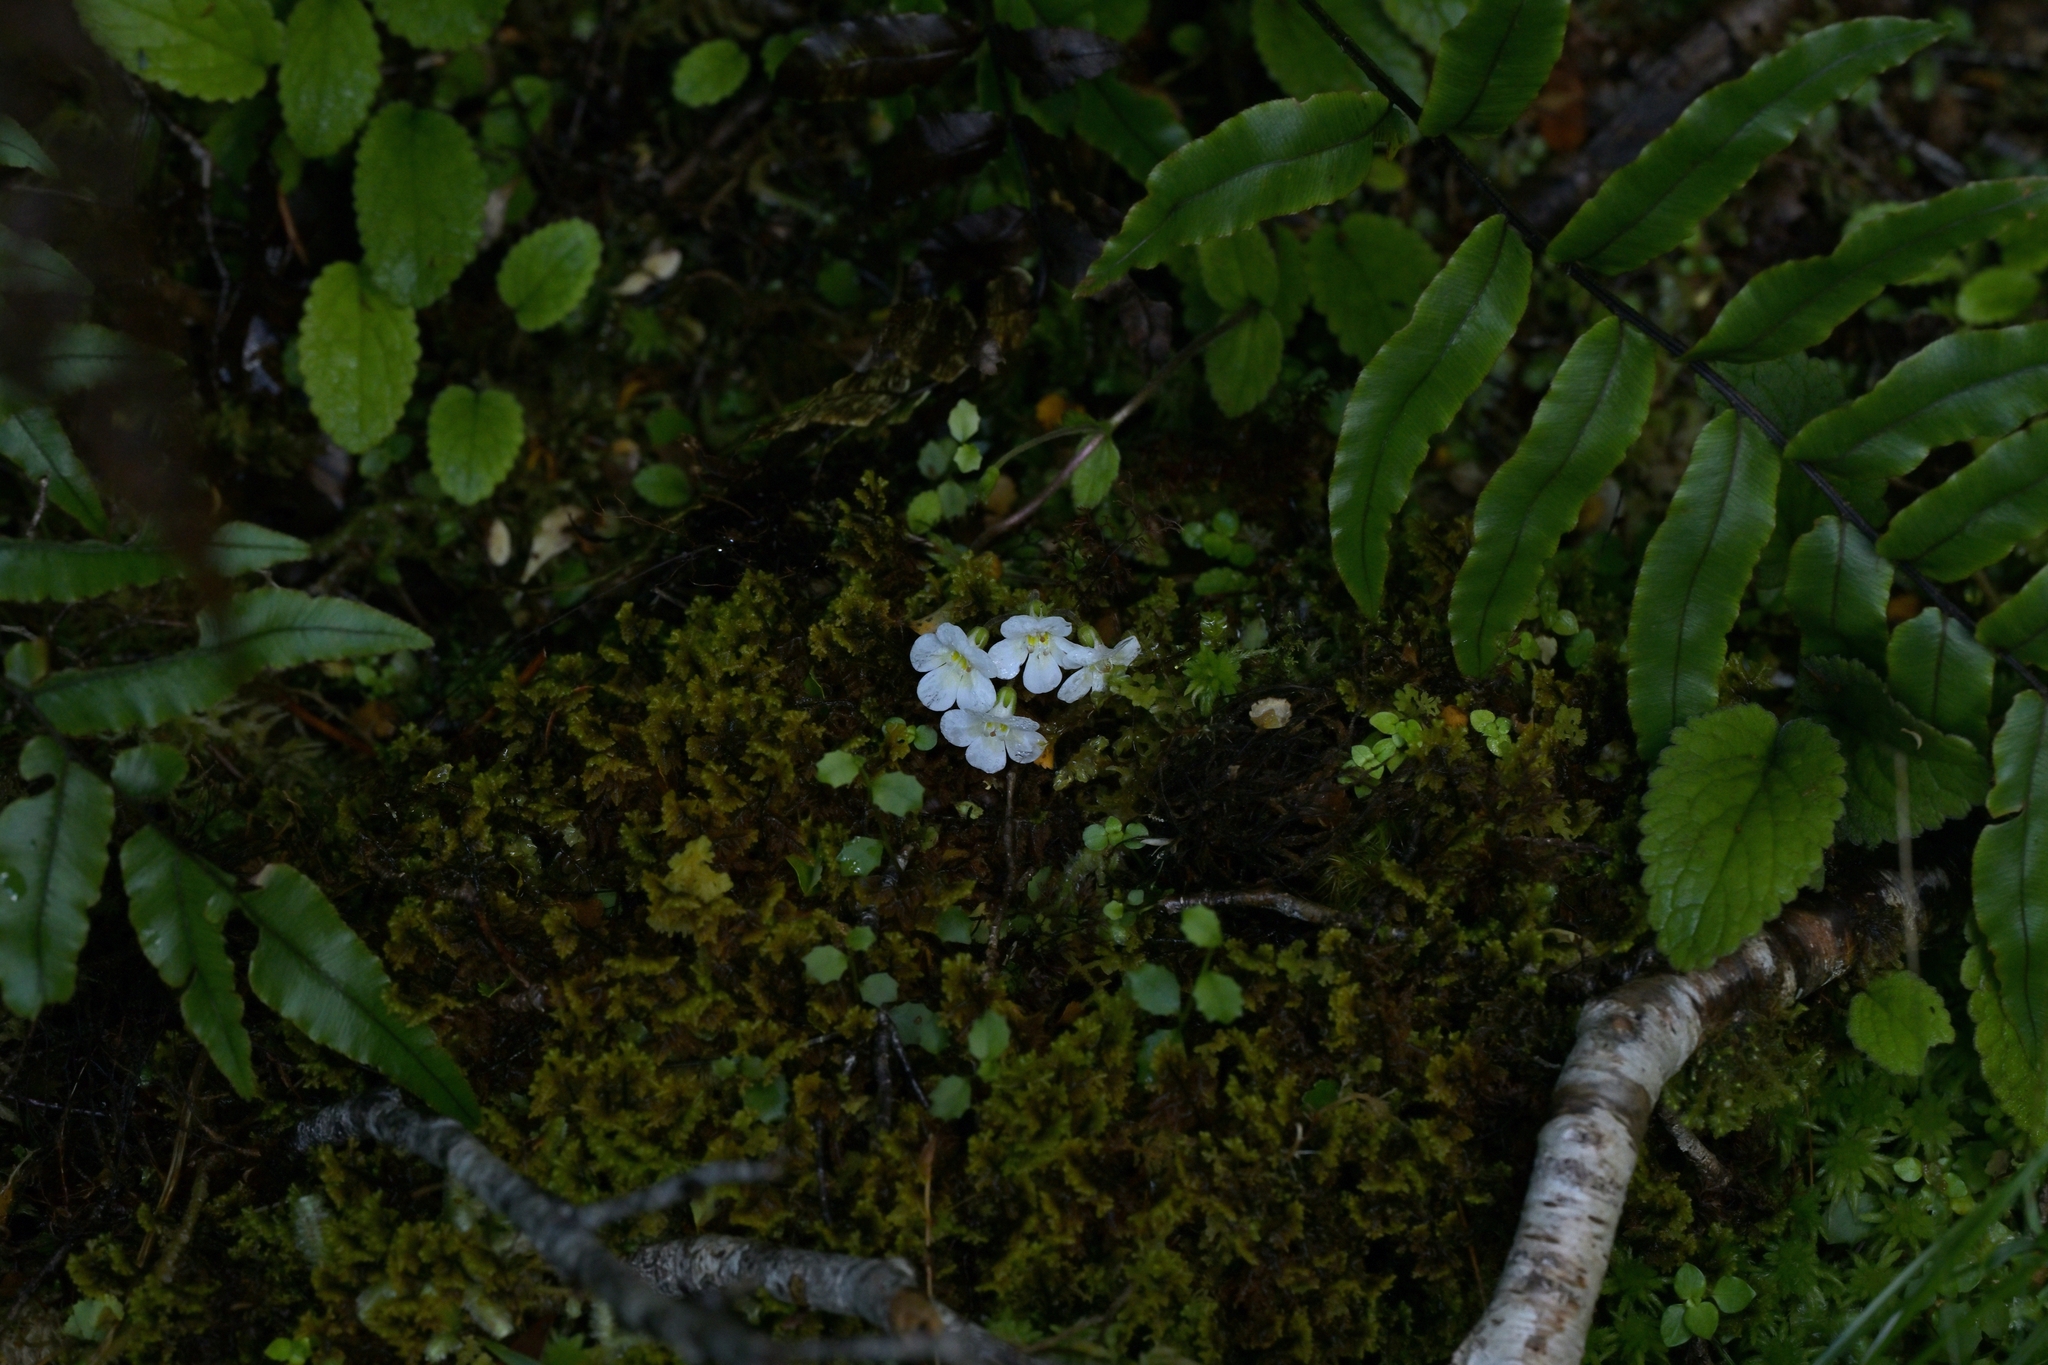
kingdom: Plantae
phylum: Tracheophyta
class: Magnoliopsida
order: Lamiales
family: Plantaginaceae
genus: Ourisia
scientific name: Ourisia macrophylla
